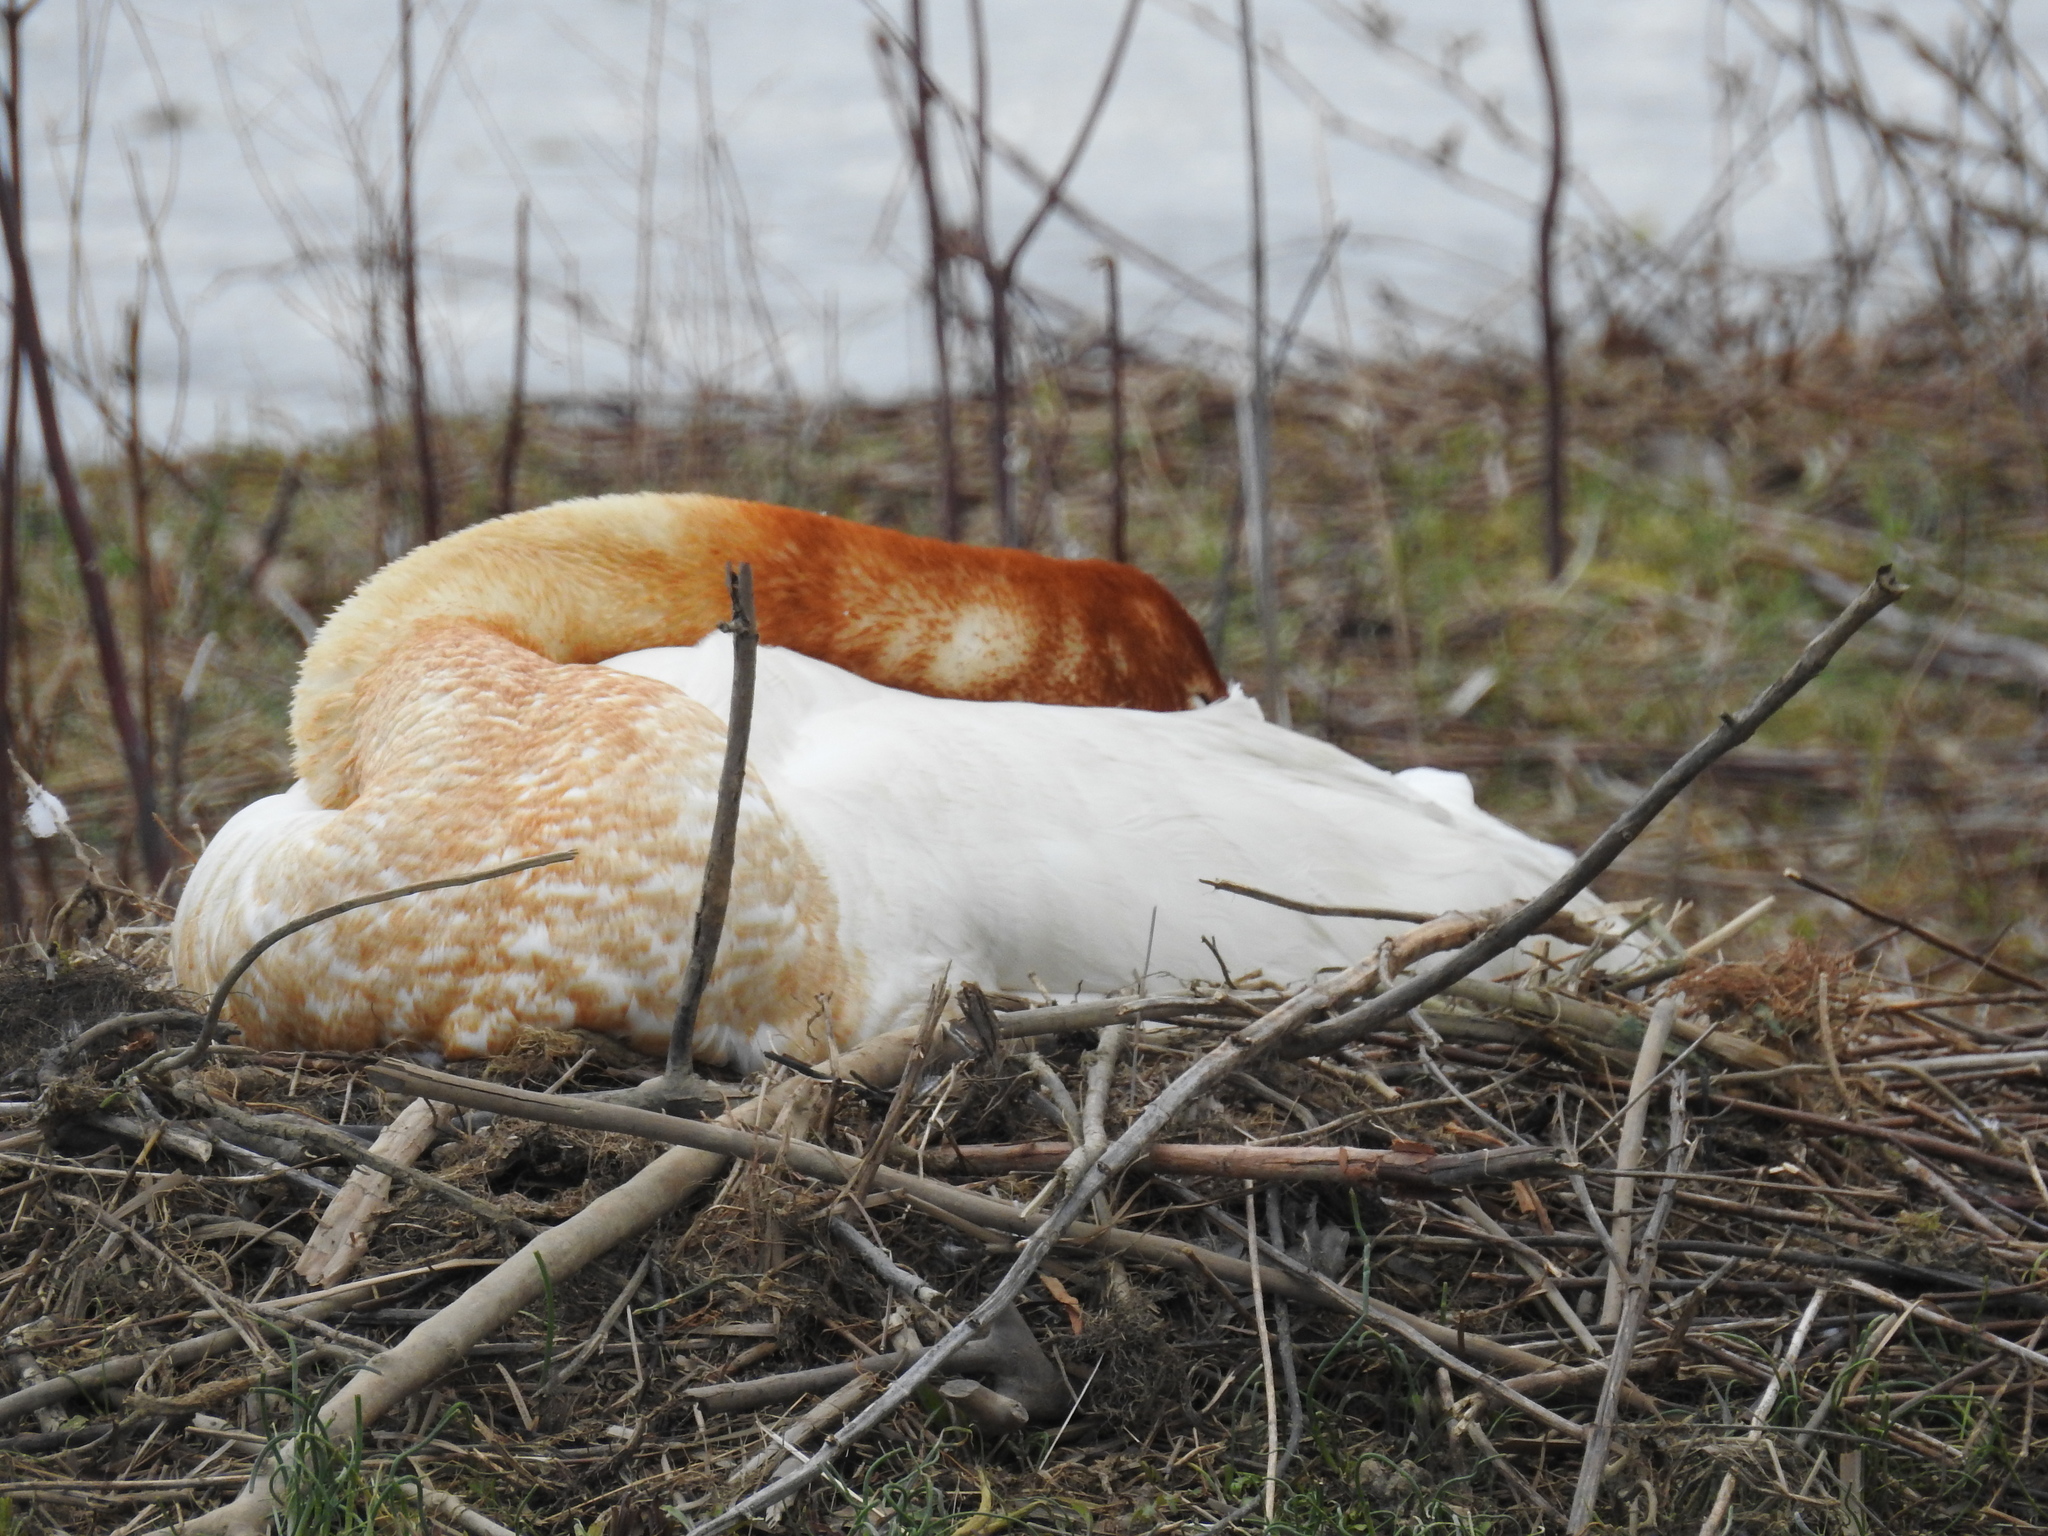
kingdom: Animalia
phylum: Chordata
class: Aves
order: Anseriformes
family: Anatidae
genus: Cygnus
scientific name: Cygnus buccinator
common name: Trumpeter swan
